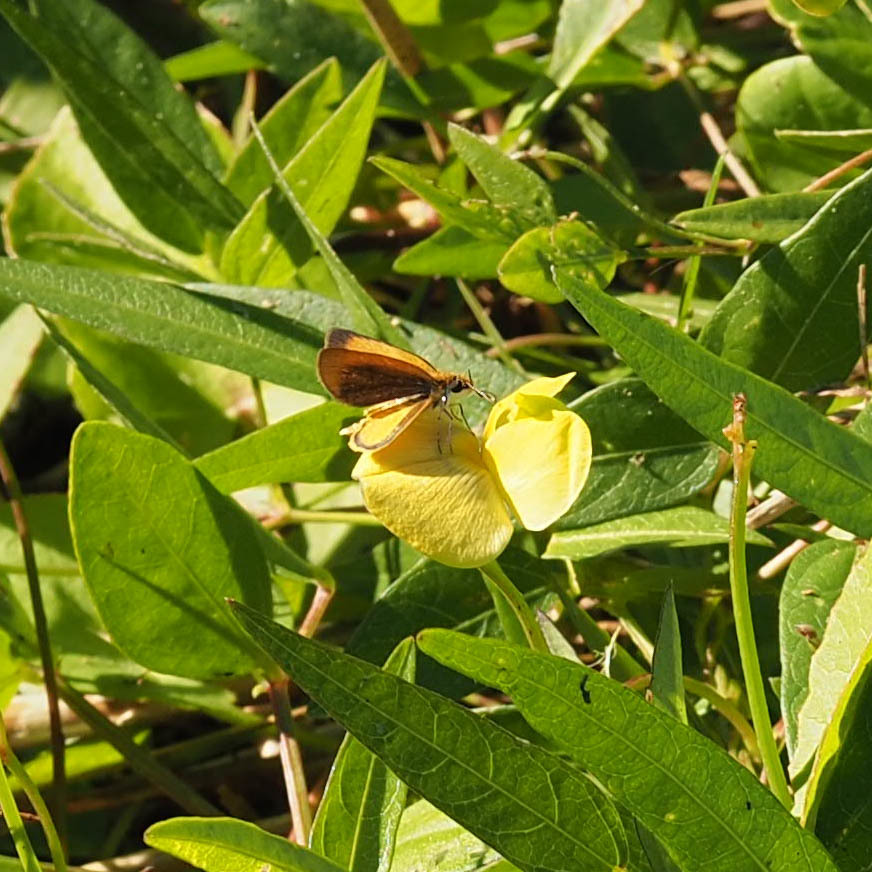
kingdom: Animalia
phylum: Arthropoda
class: Insecta
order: Lepidoptera
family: Hesperiidae
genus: Ancyloxypha
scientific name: Ancyloxypha numitor
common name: Least skipper
